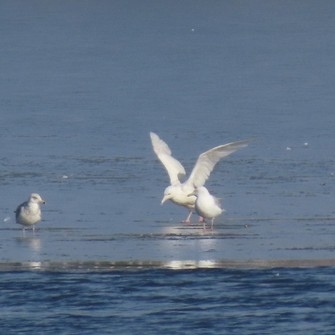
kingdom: Animalia
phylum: Chordata
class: Aves
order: Charadriiformes
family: Laridae
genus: Larus
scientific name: Larus hyperboreus
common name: Glaucous gull
